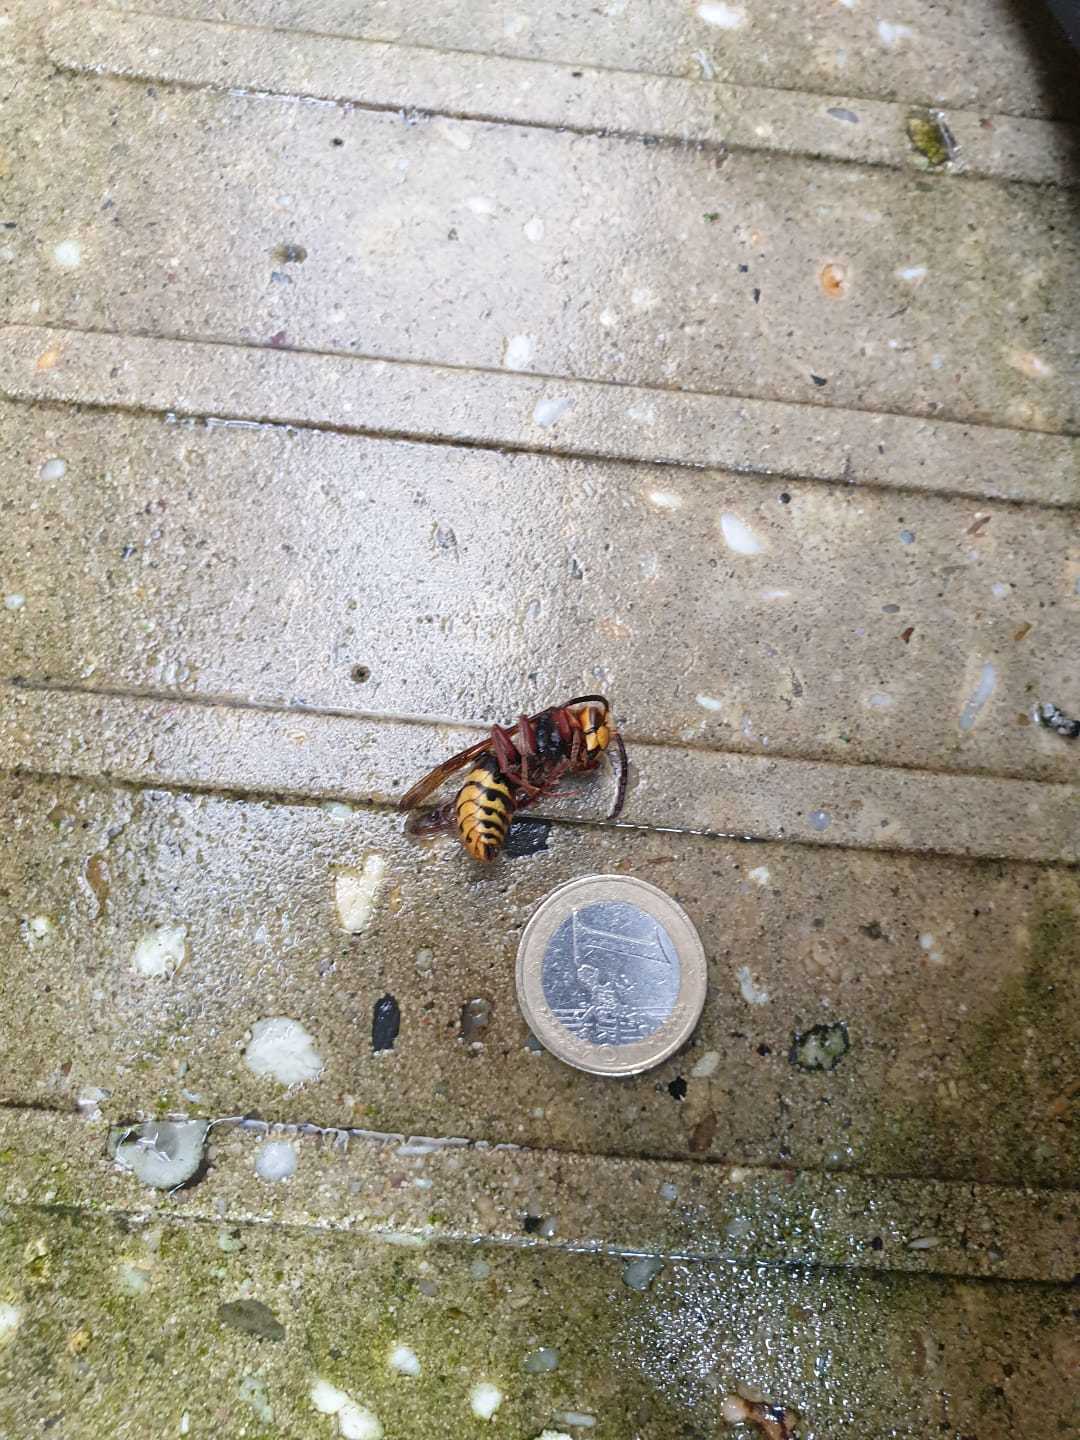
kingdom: Animalia
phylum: Arthropoda
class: Insecta
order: Hymenoptera
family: Vespidae
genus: Vespa
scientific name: Vespa crabro
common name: Hornet
